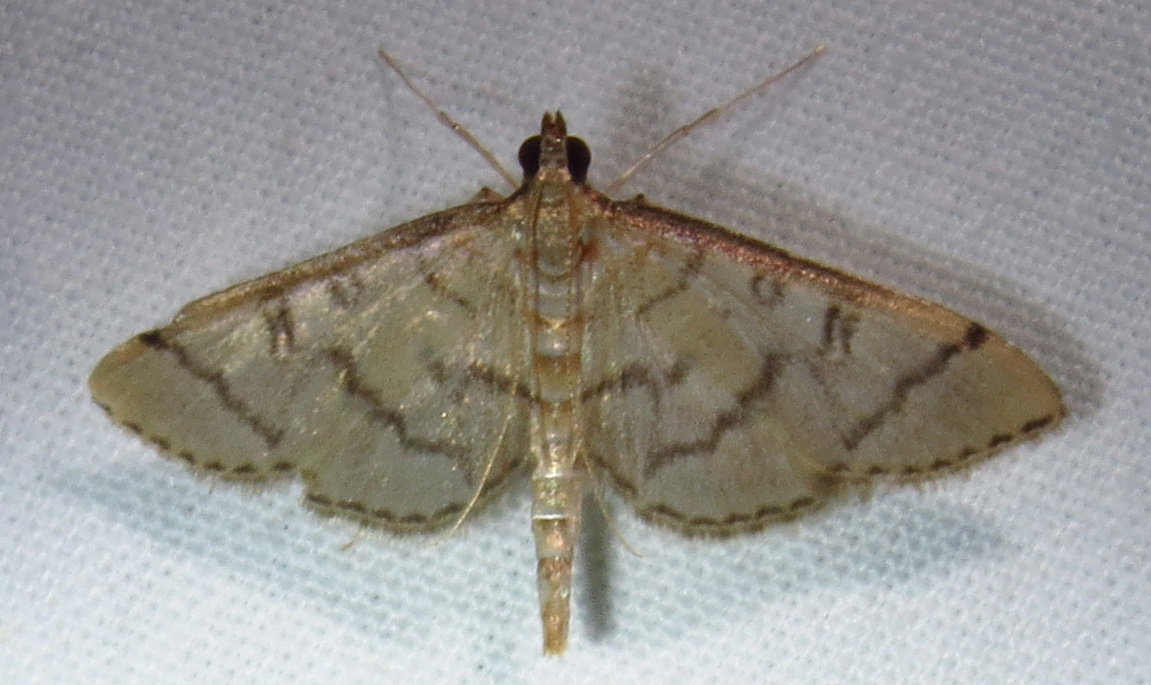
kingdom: Animalia
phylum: Arthropoda
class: Insecta
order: Lepidoptera
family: Crambidae
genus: Lamprosema
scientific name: Lamprosema Blepharomastix ranalis
